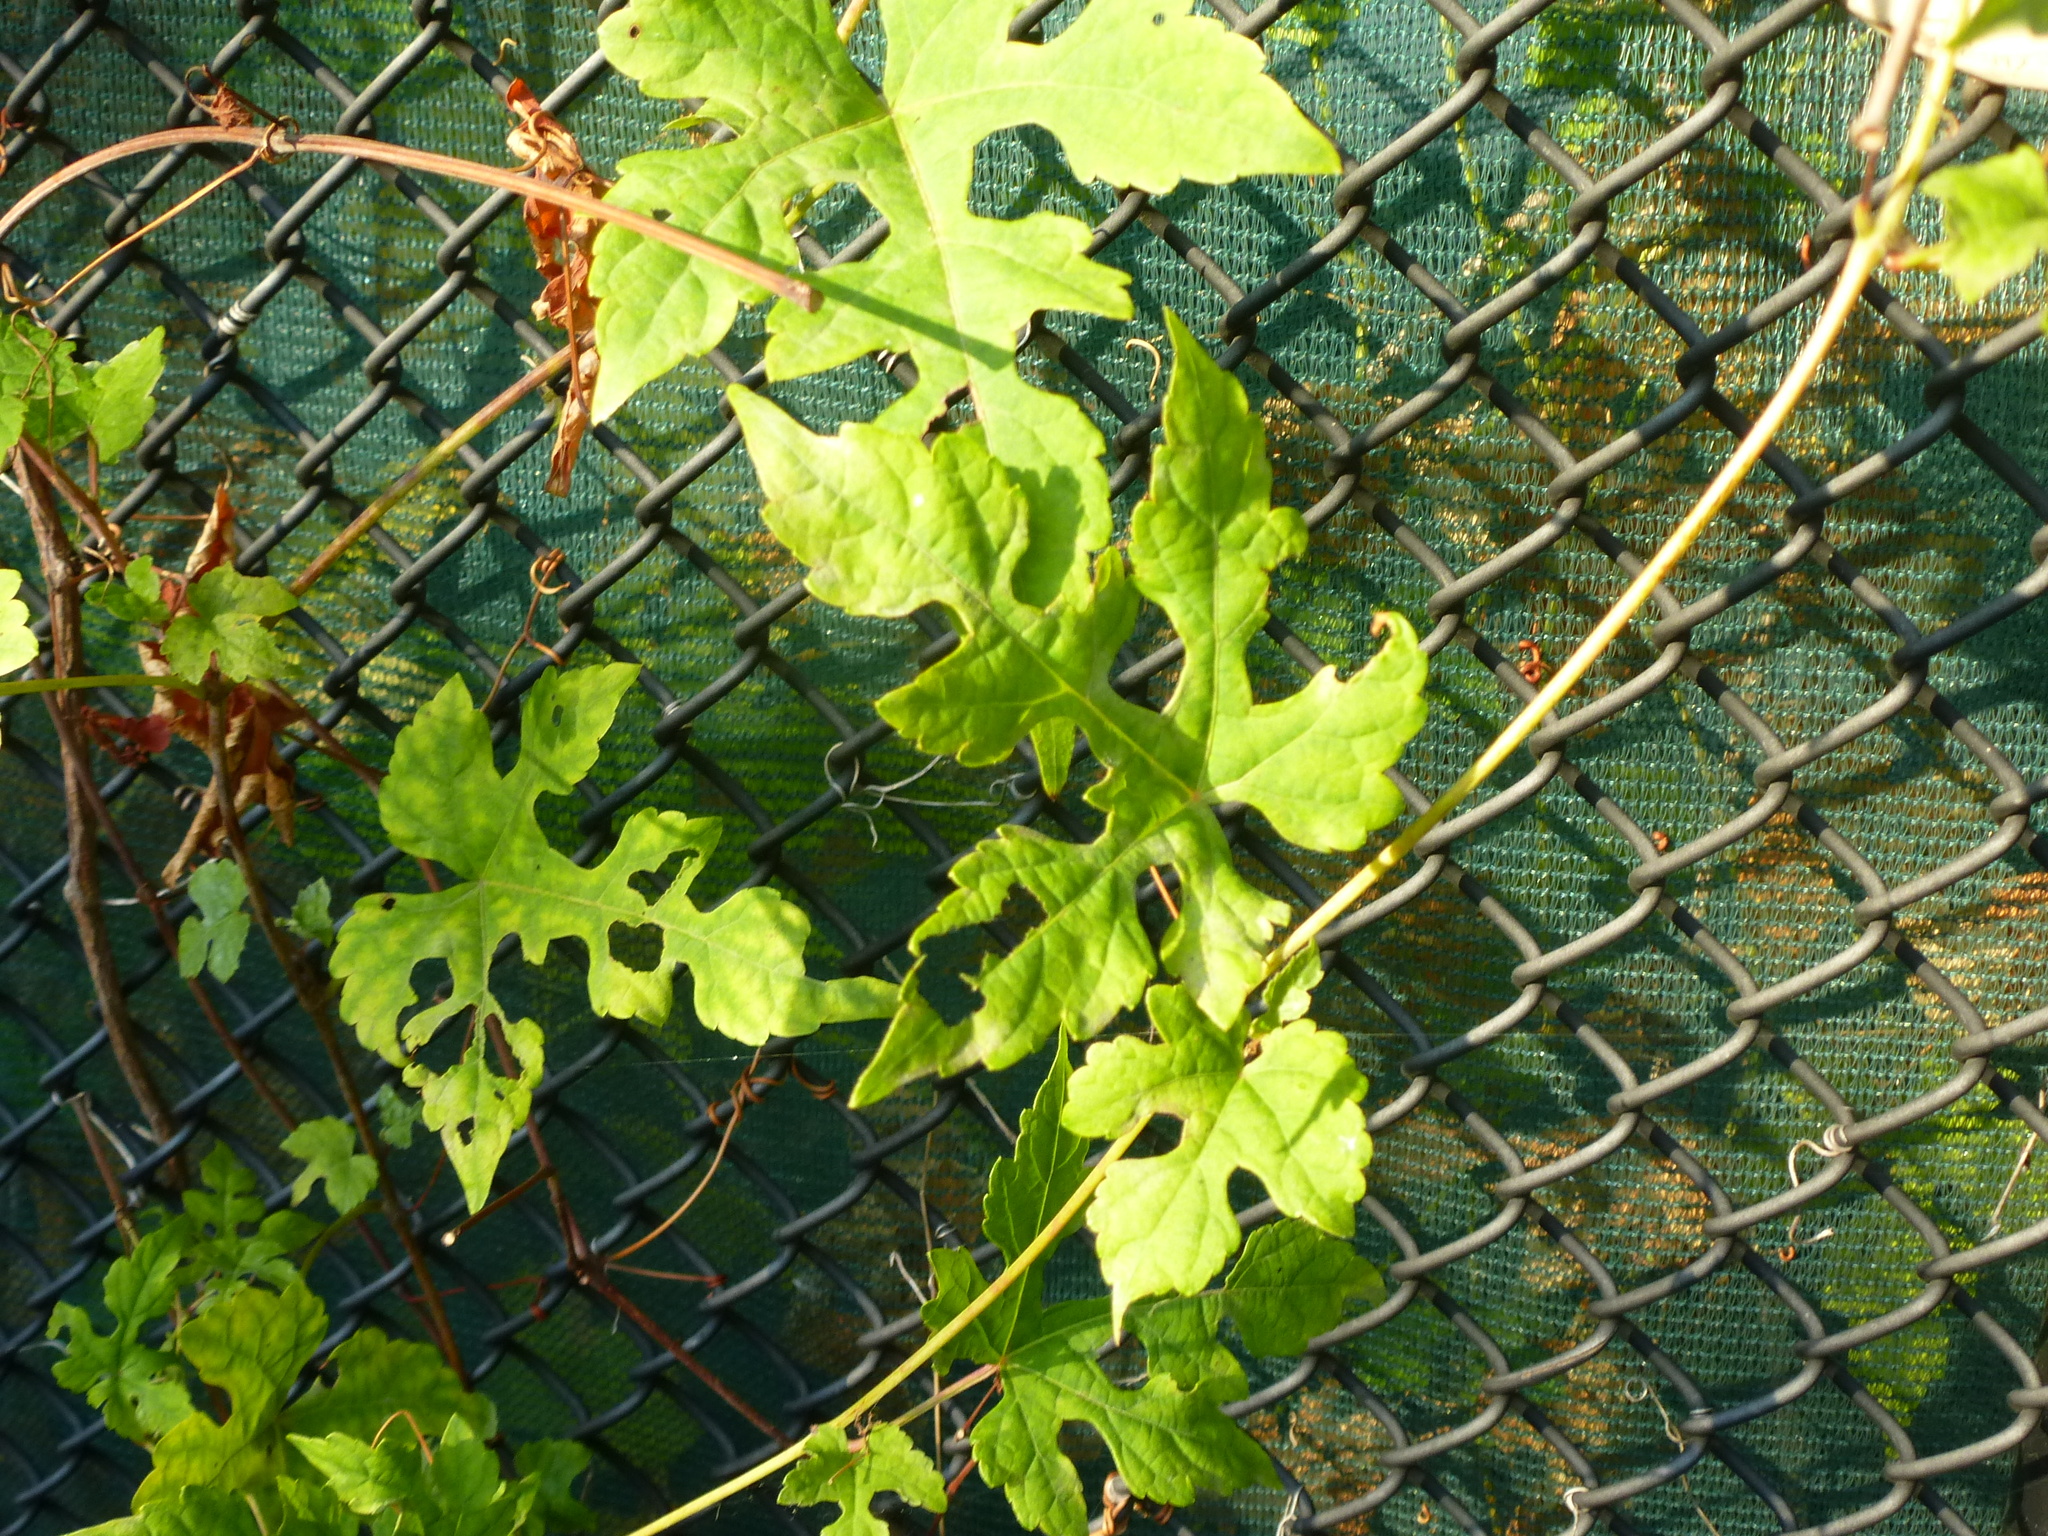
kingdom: Plantae
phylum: Tracheophyta
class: Magnoliopsida
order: Vitales
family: Vitaceae
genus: Ampelopsis
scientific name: Ampelopsis glandulosa
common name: Amur peppervine
